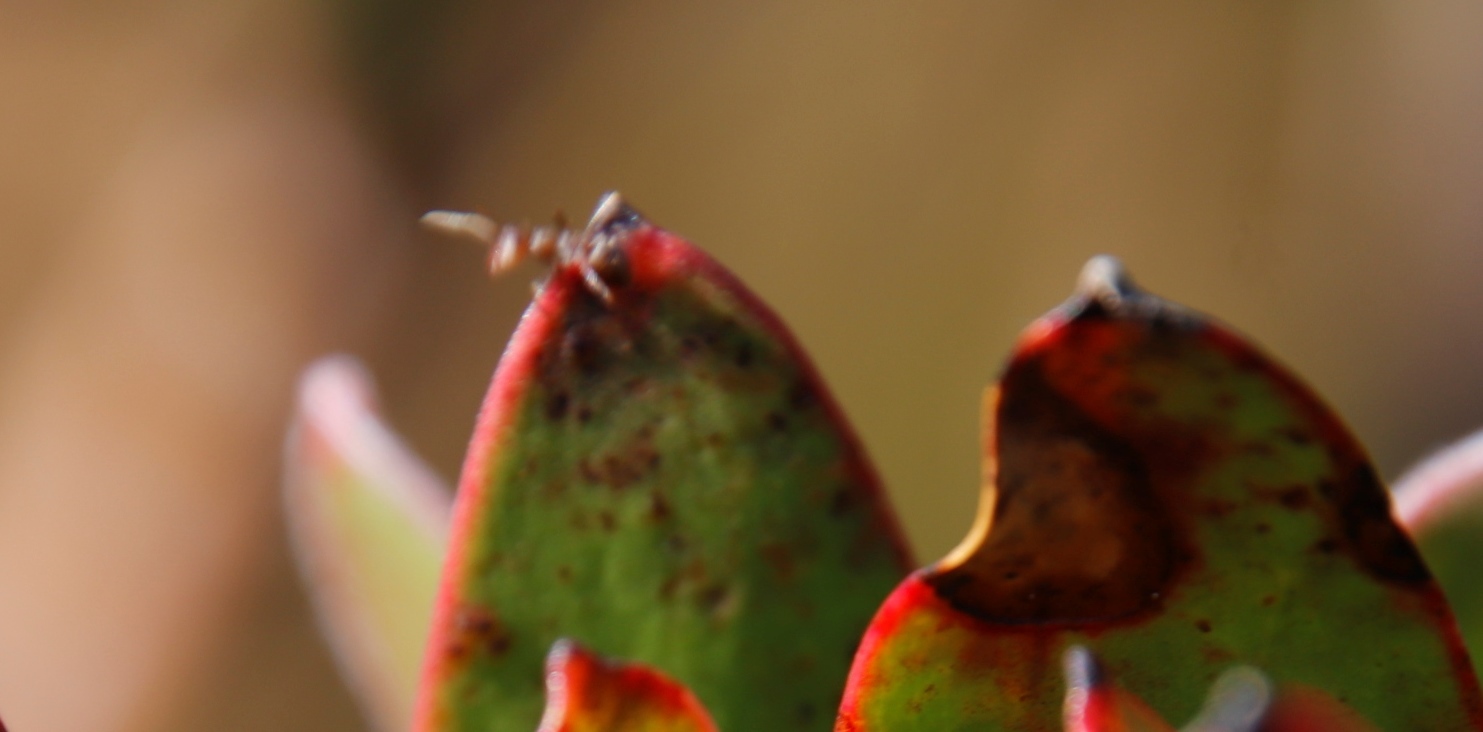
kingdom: Animalia
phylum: Arthropoda
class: Insecta
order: Hymenoptera
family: Formicidae
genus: Anoplolepis
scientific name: Anoplolepis steingroeveri
